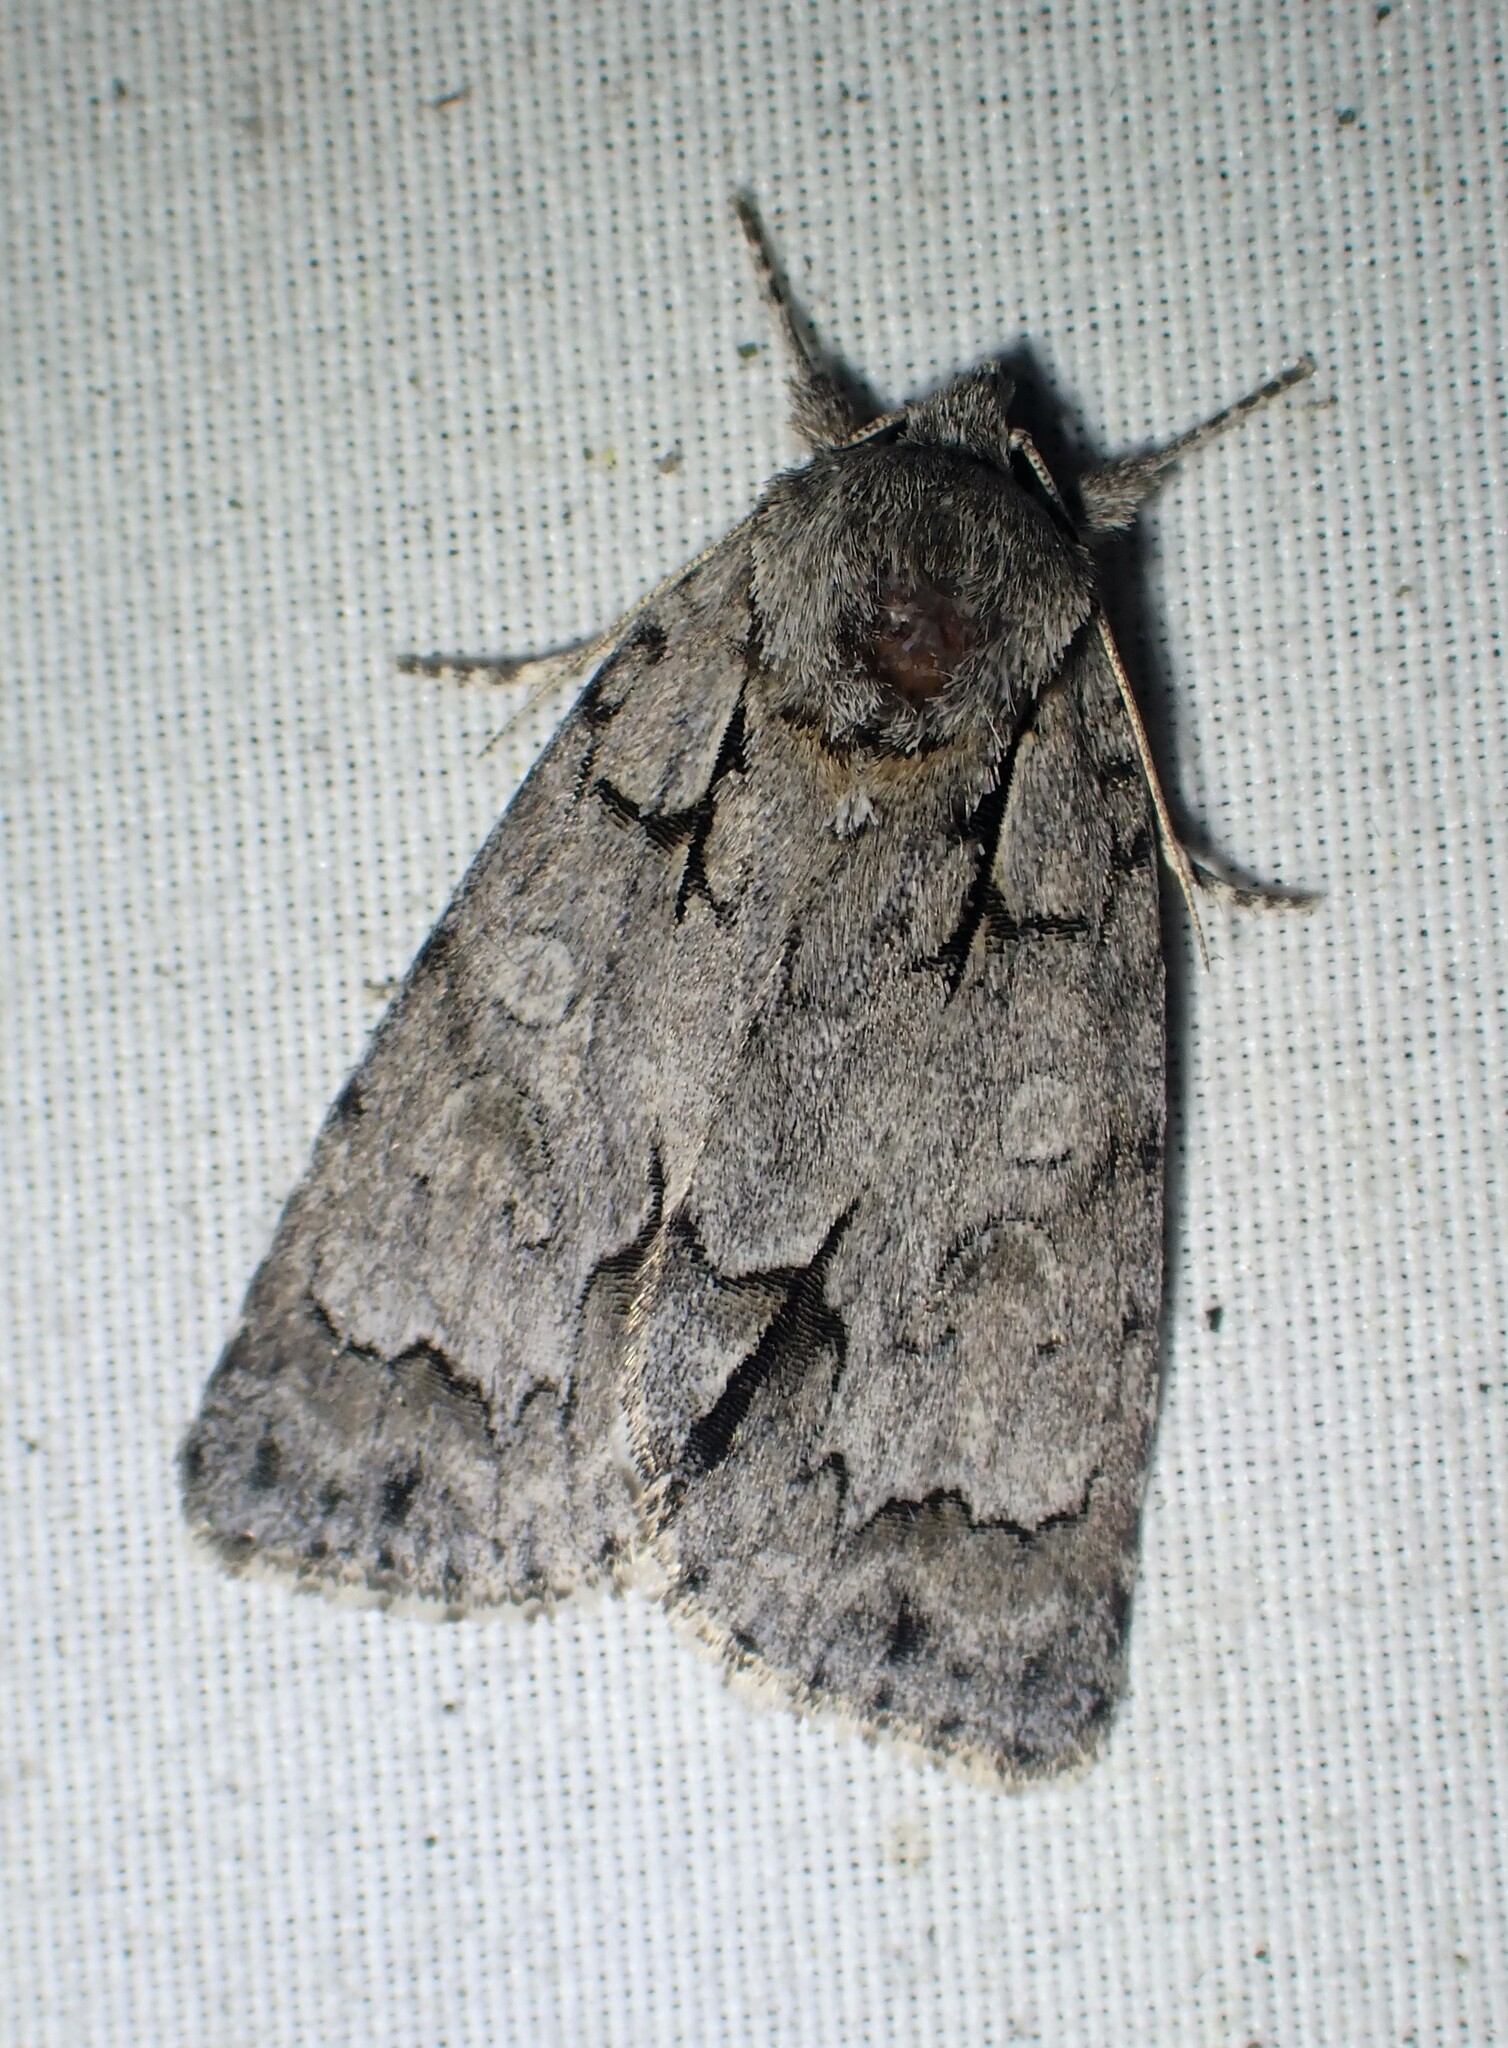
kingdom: Animalia
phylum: Arthropoda
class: Insecta
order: Lepidoptera
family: Noctuidae
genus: Acronicta
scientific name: Acronicta grisea
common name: Gray dagger
